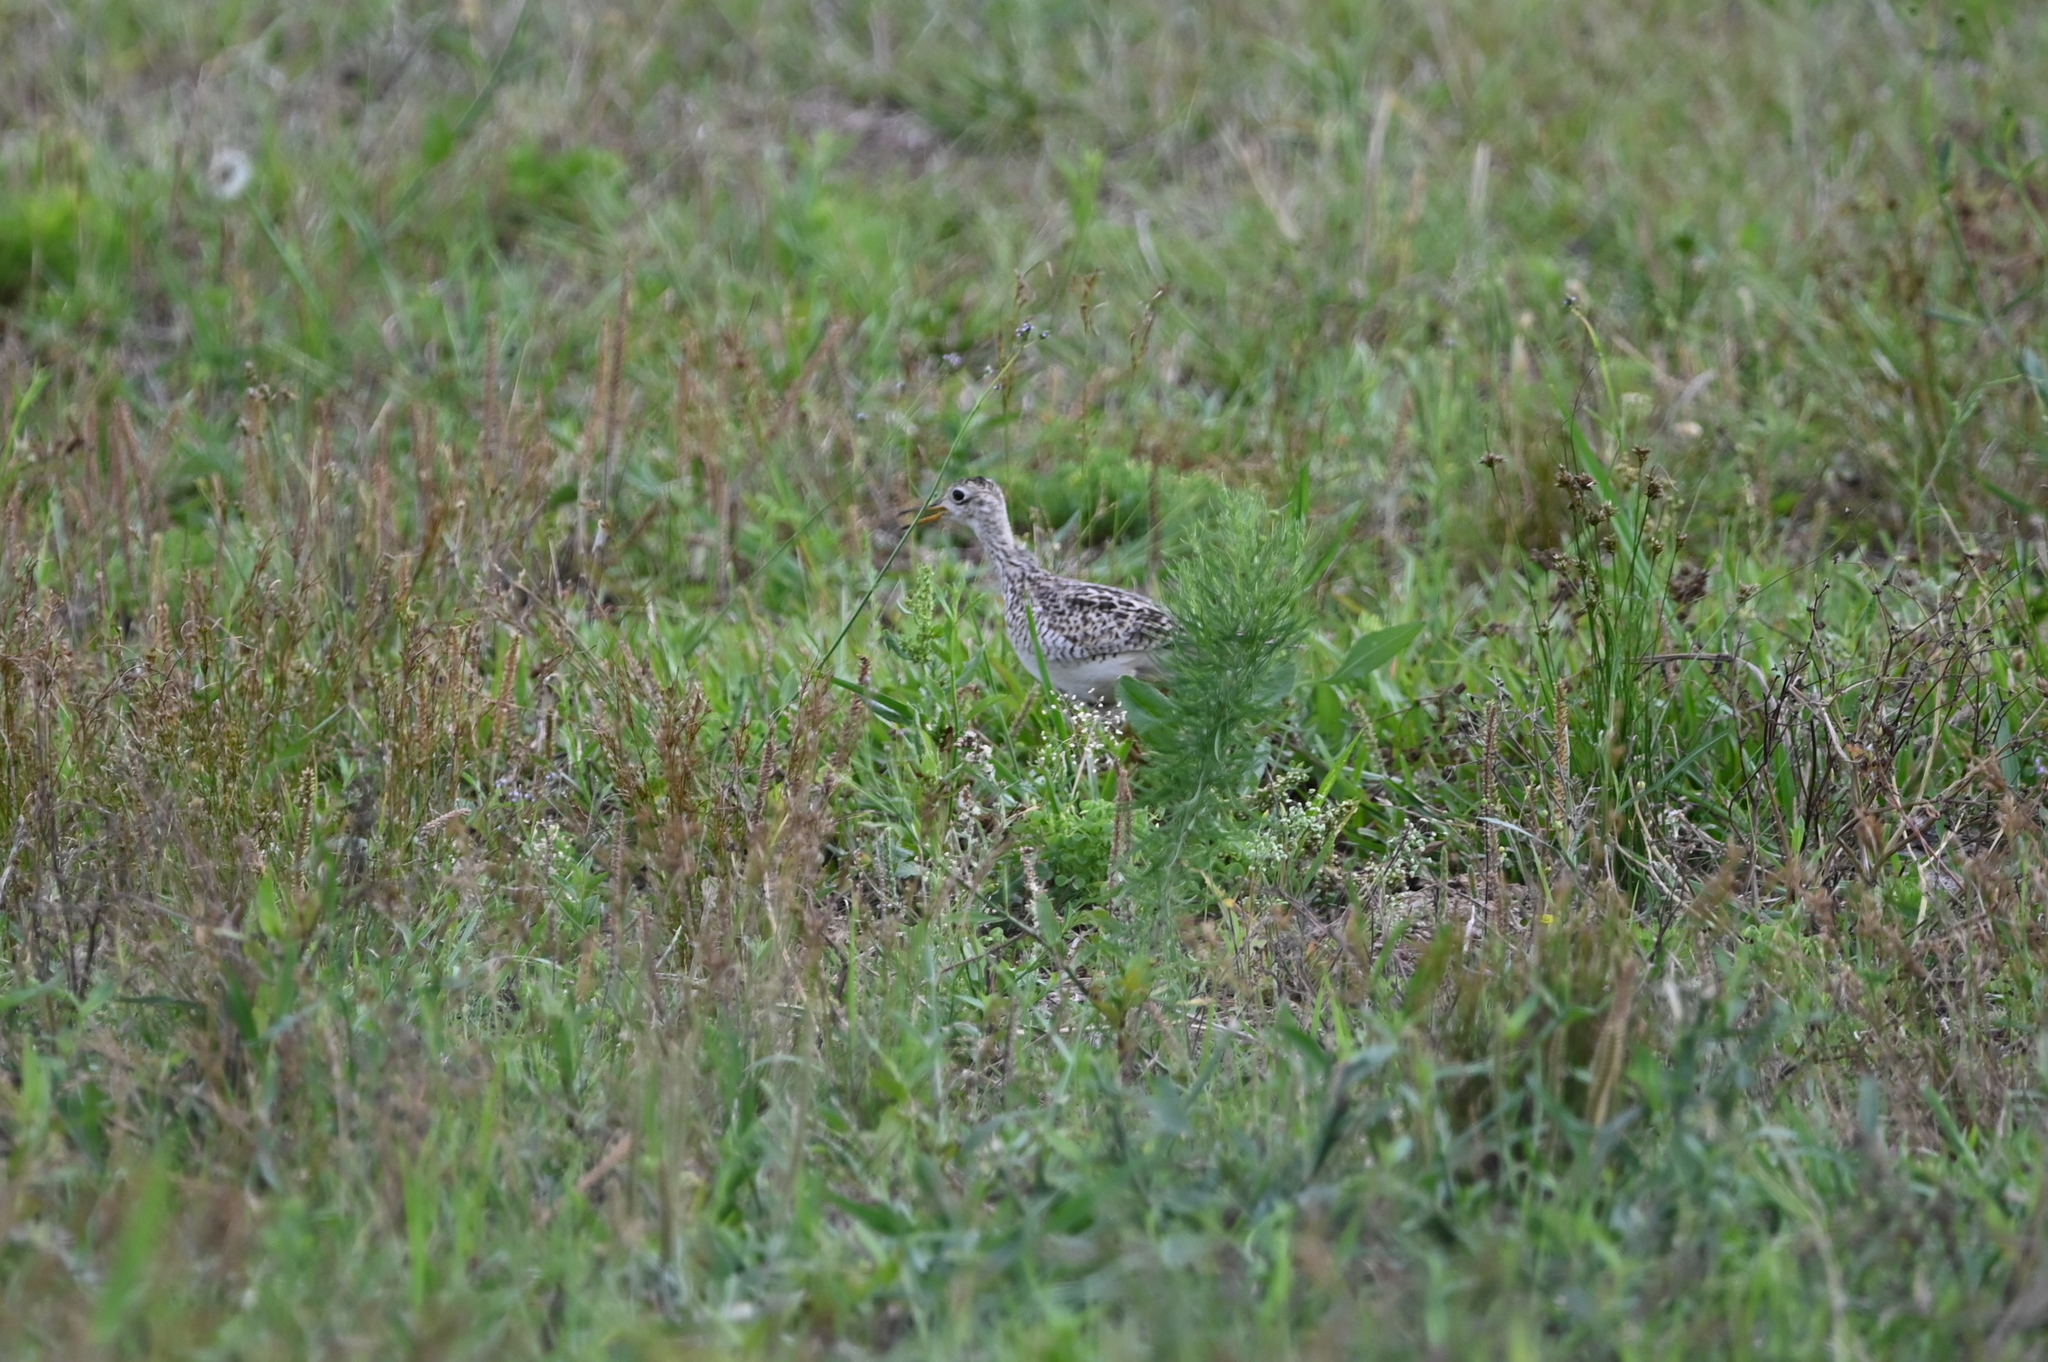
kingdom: Animalia
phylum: Chordata
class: Aves
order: Charadriiformes
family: Scolopacidae
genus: Bartramia
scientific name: Bartramia longicauda
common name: Upland sandpiper
